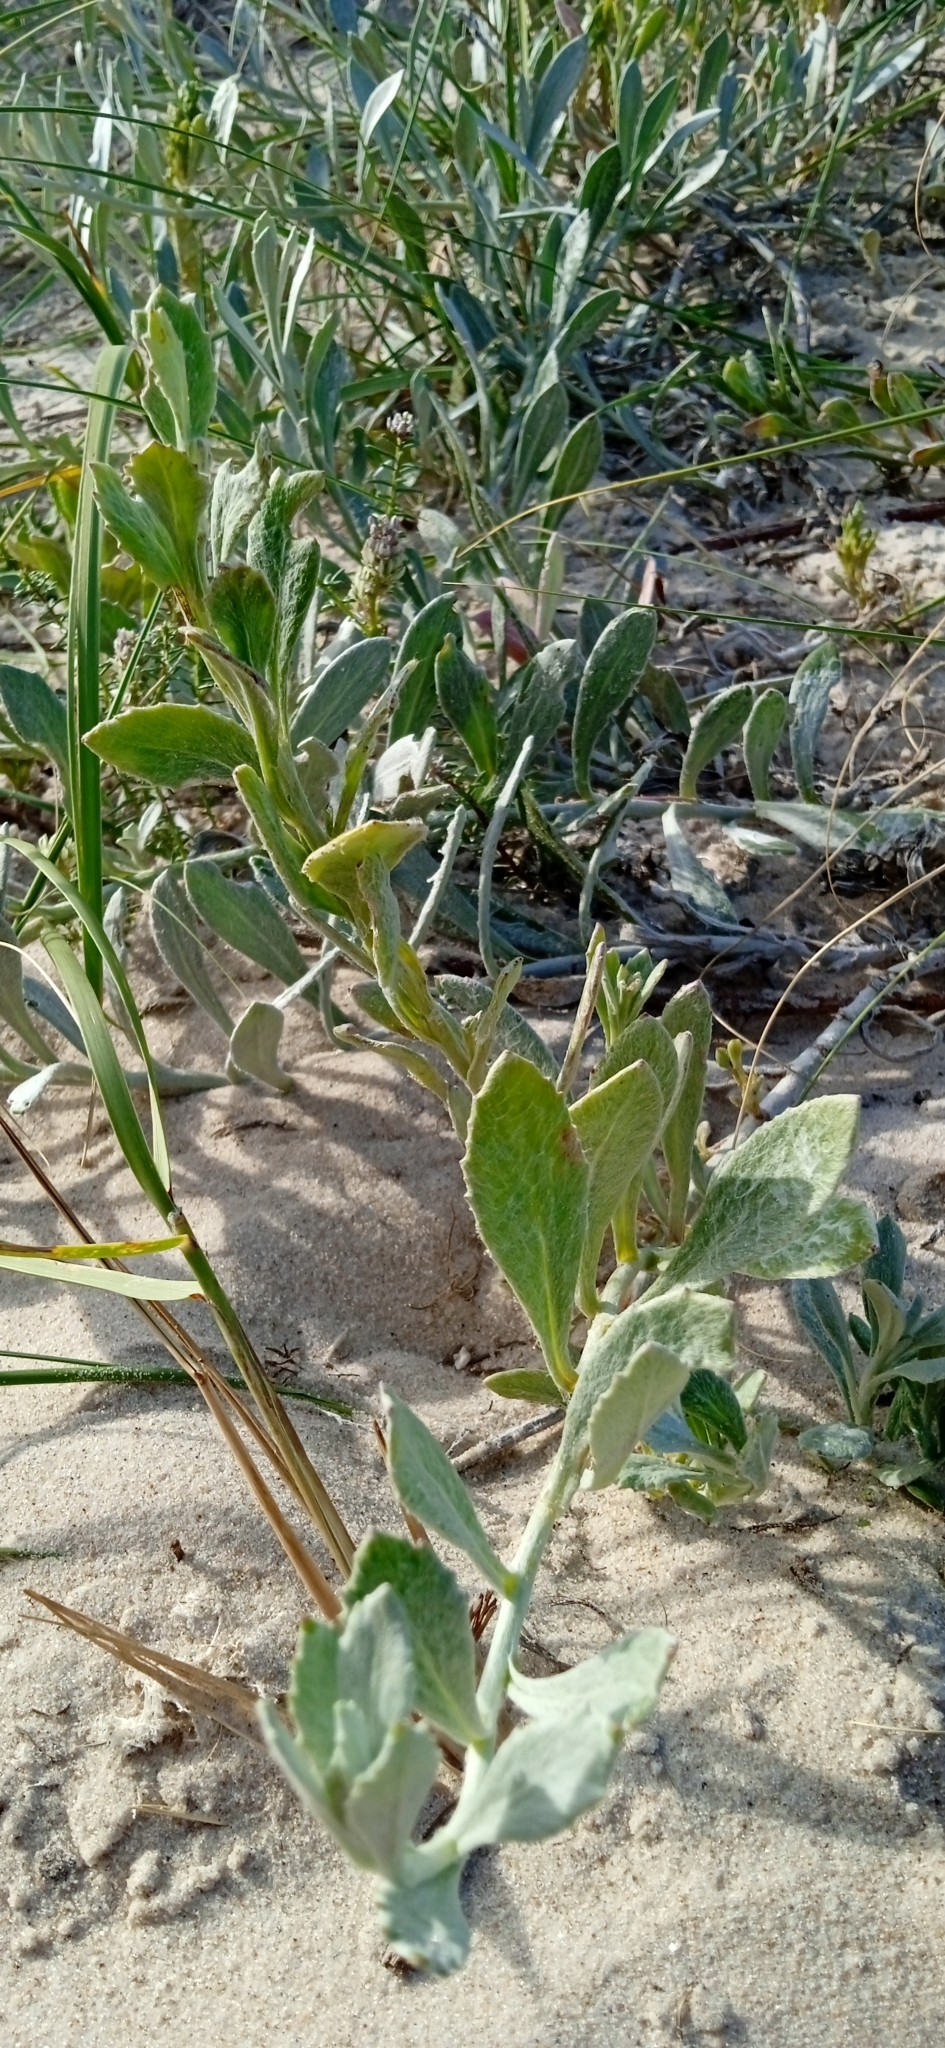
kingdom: Plantae
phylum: Tracheophyta
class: Magnoliopsida
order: Asterales
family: Asteraceae
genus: Senecio
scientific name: Senecio crassiflorus
